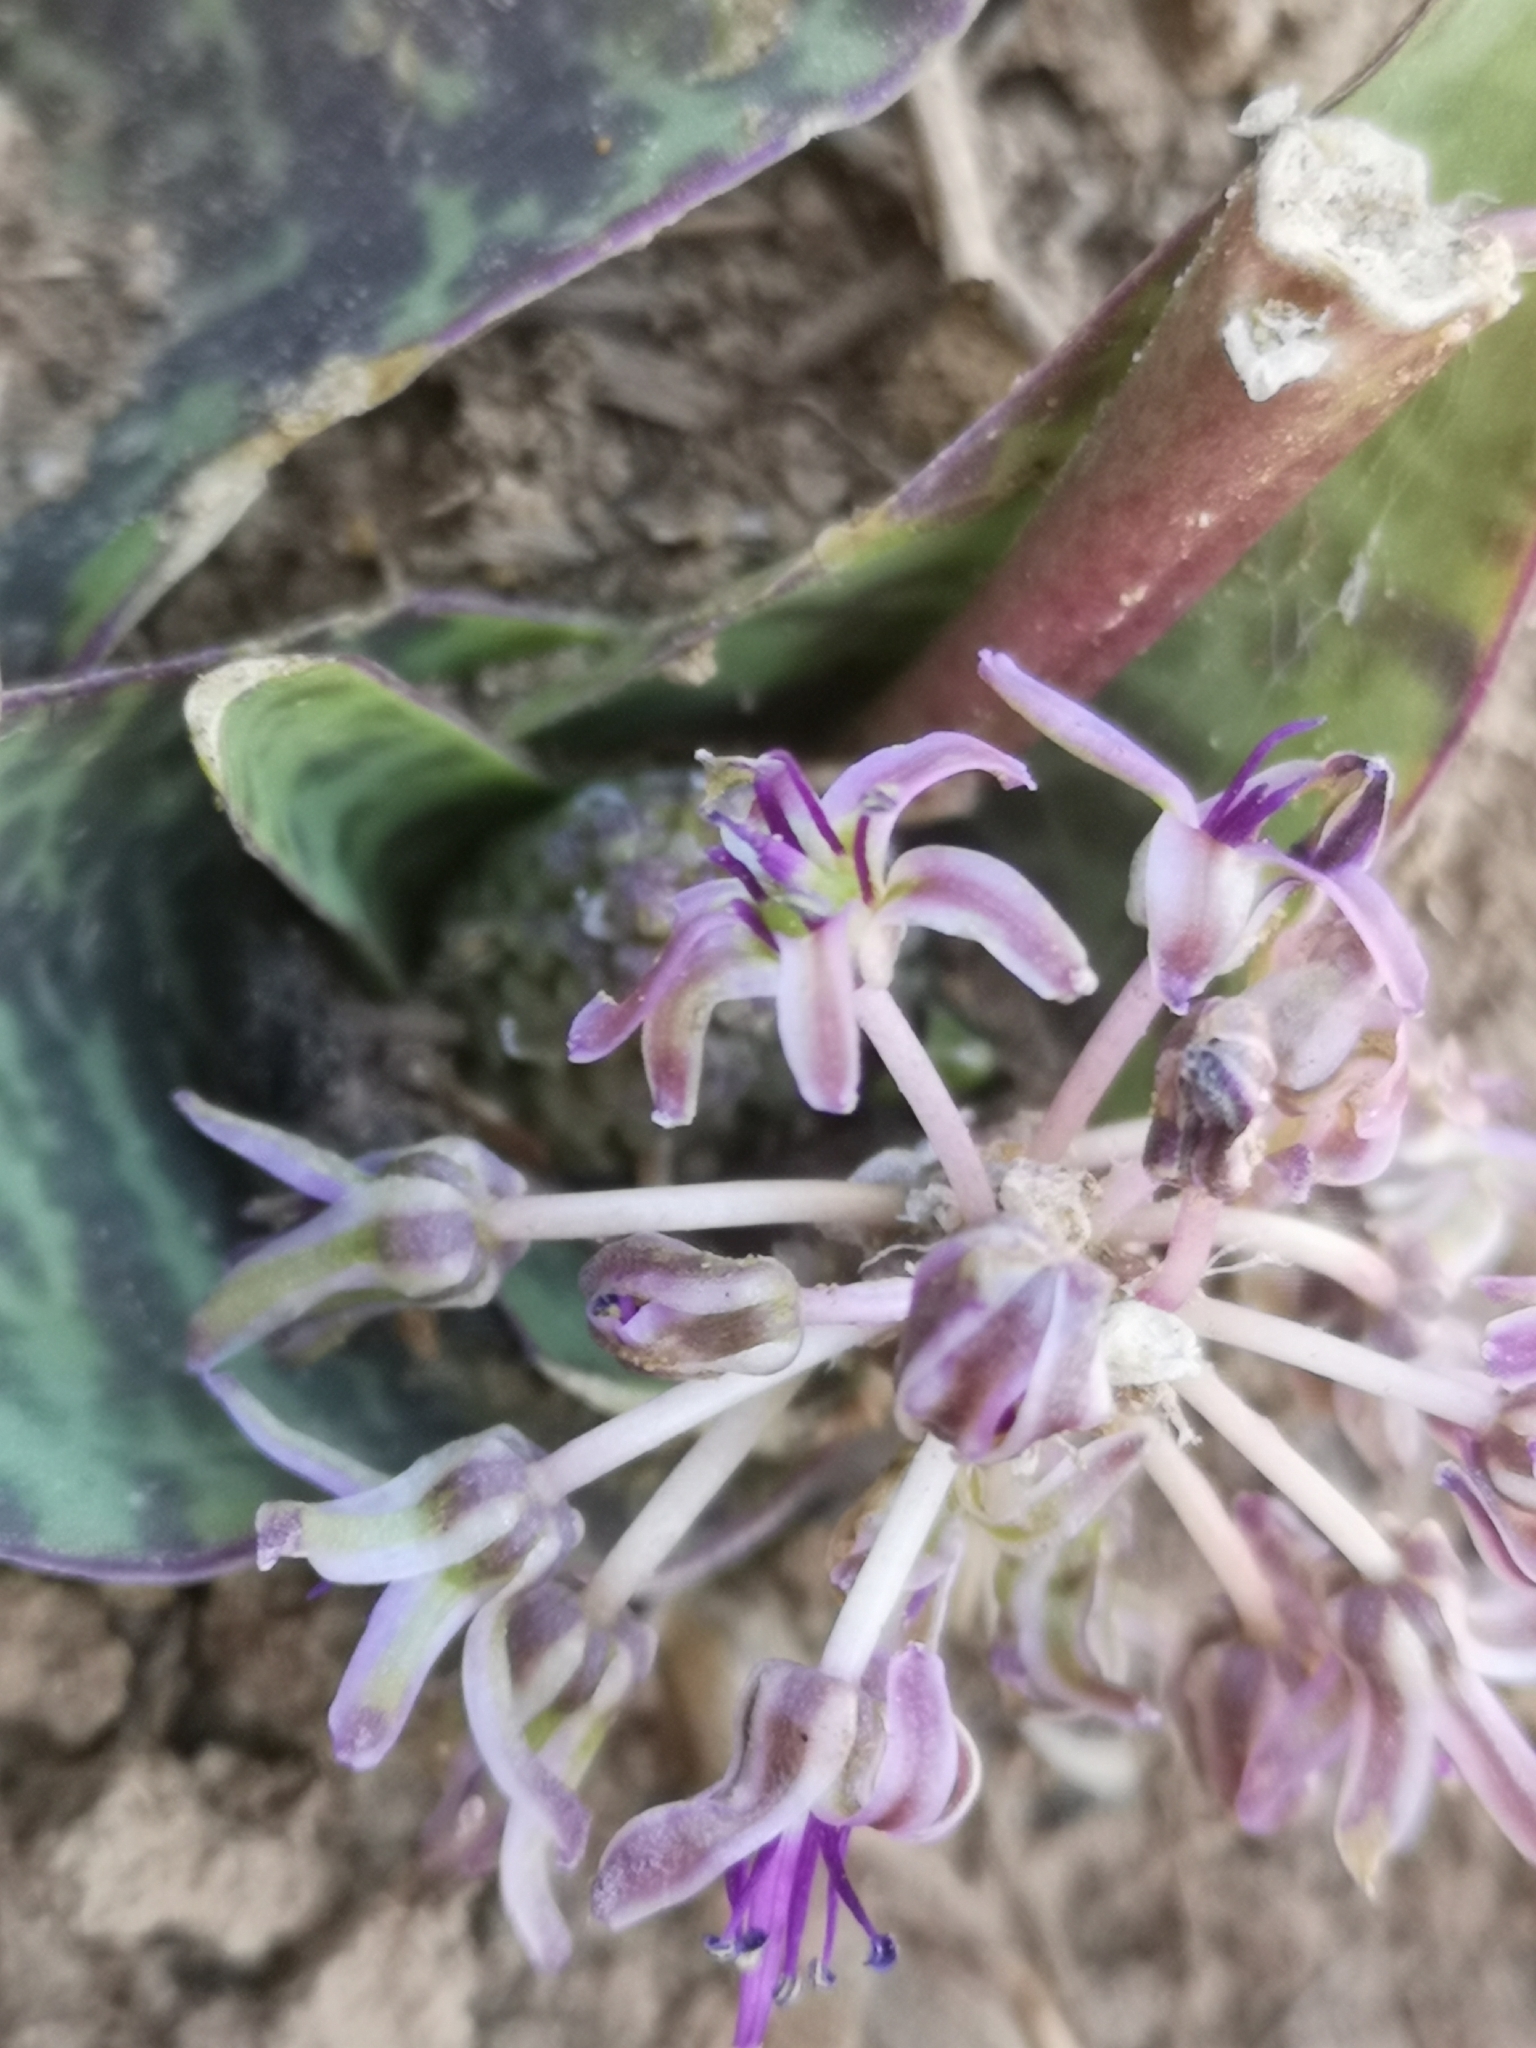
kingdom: Plantae
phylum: Tracheophyta
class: Liliopsida
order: Asparagales
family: Asparagaceae
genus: Ledebouria
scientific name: Ledebouria ovatifolia
